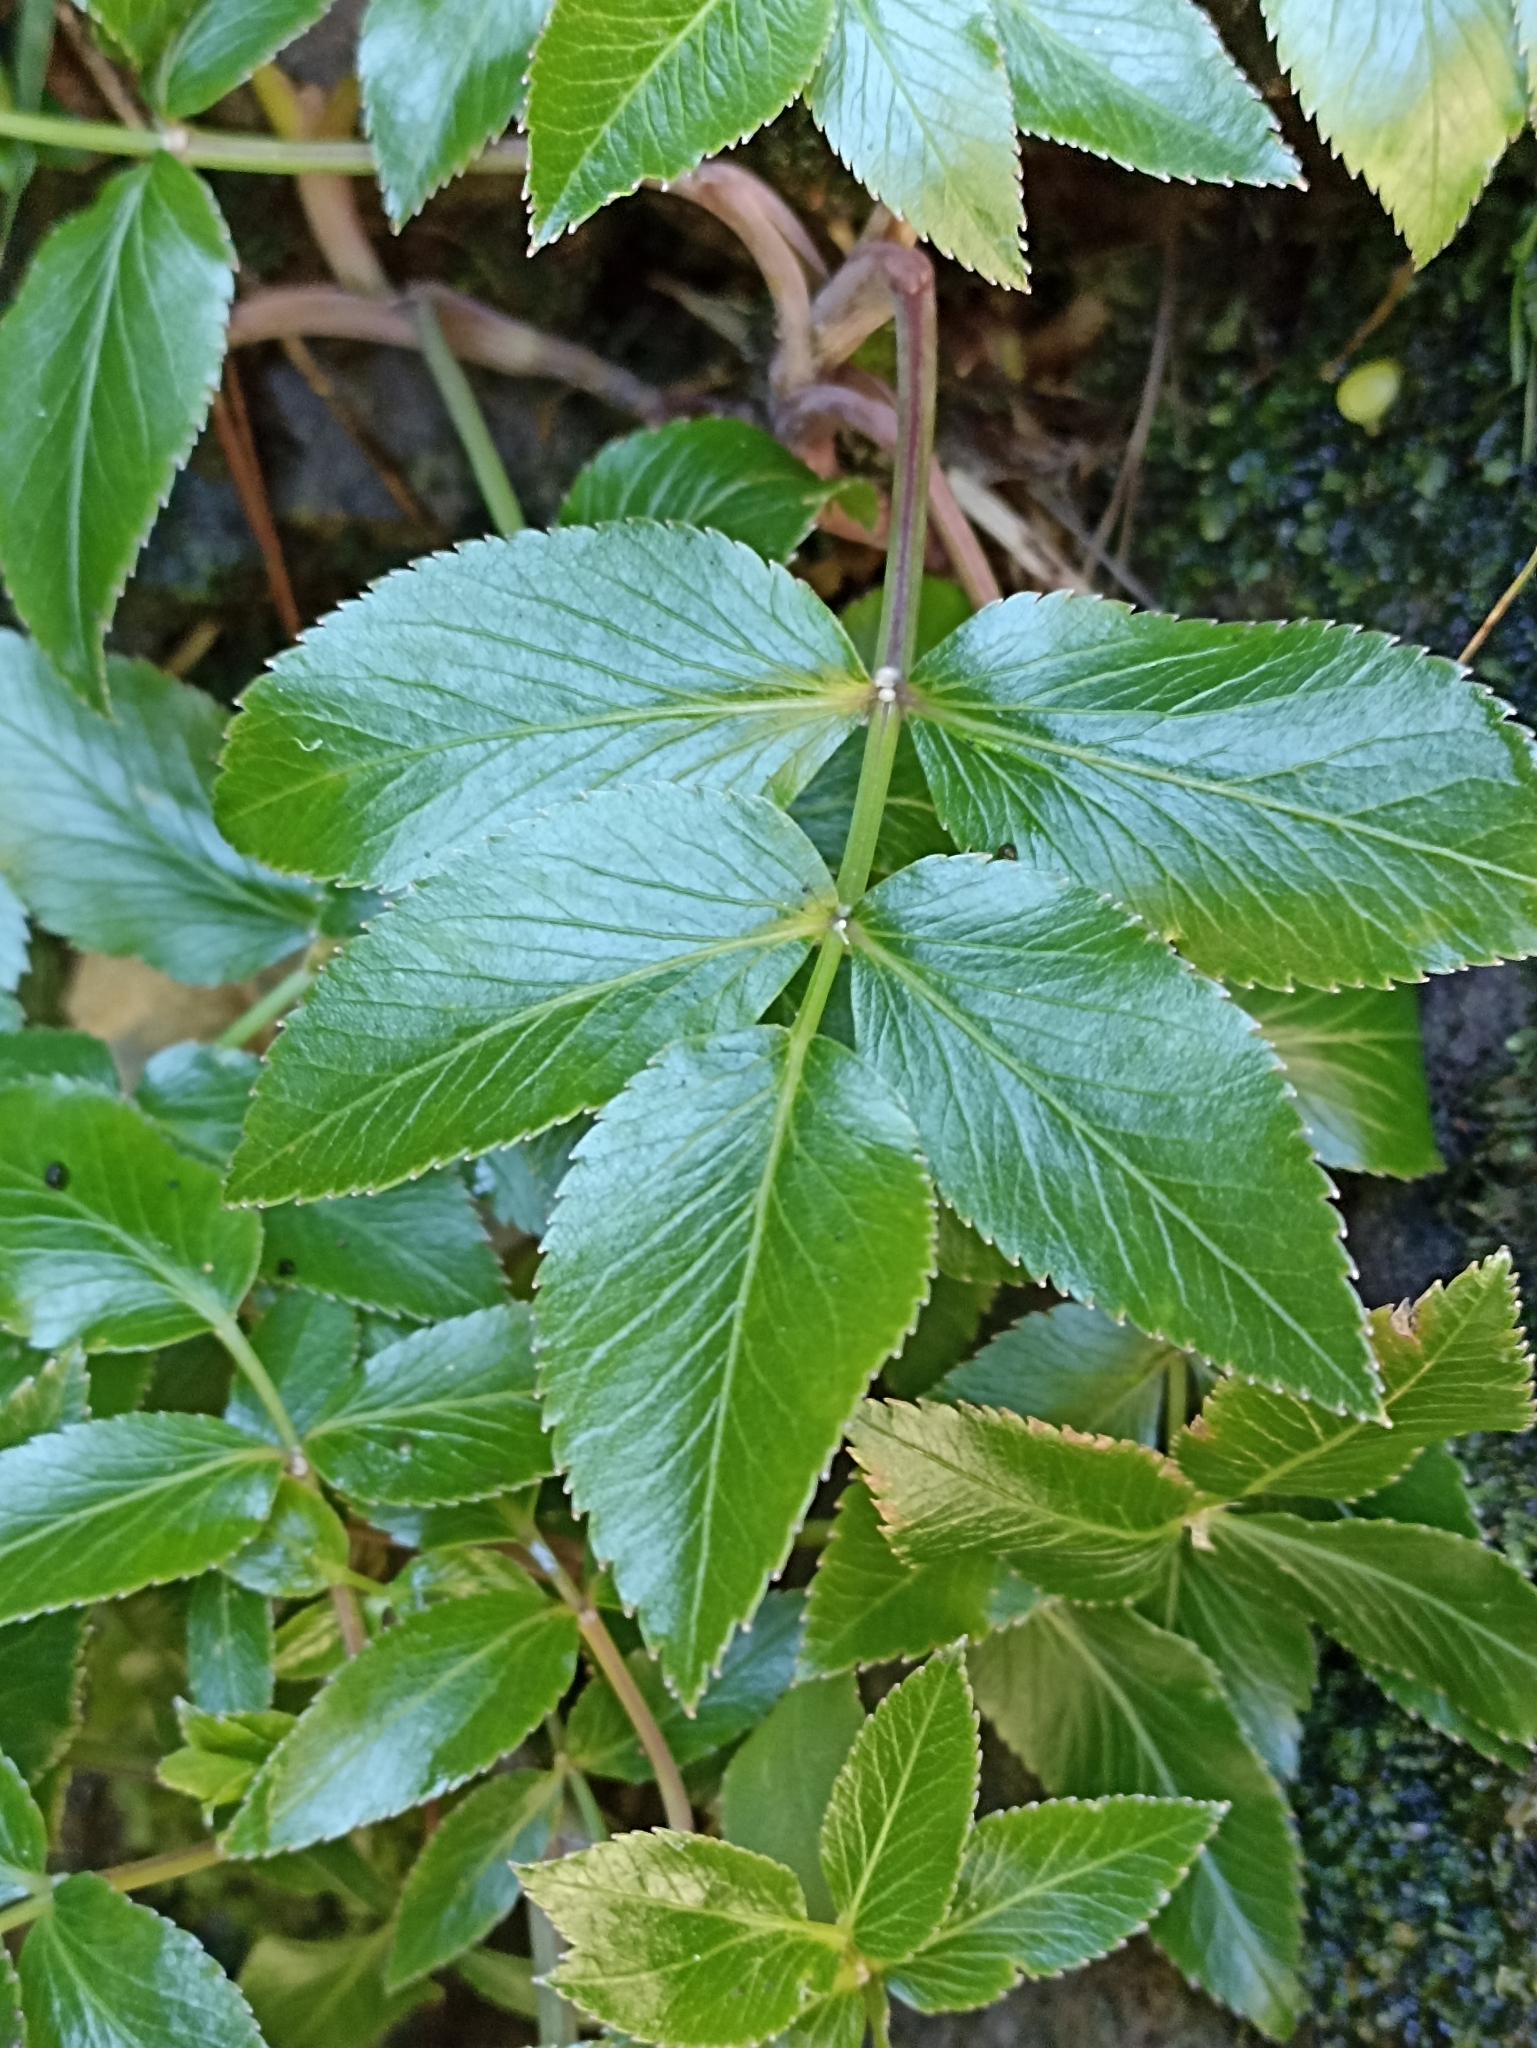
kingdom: Plantae
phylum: Tracheophyta
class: Magnoliopsida
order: Apiales
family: Apiaceae
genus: Scandia
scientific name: Scandia rosifolia
